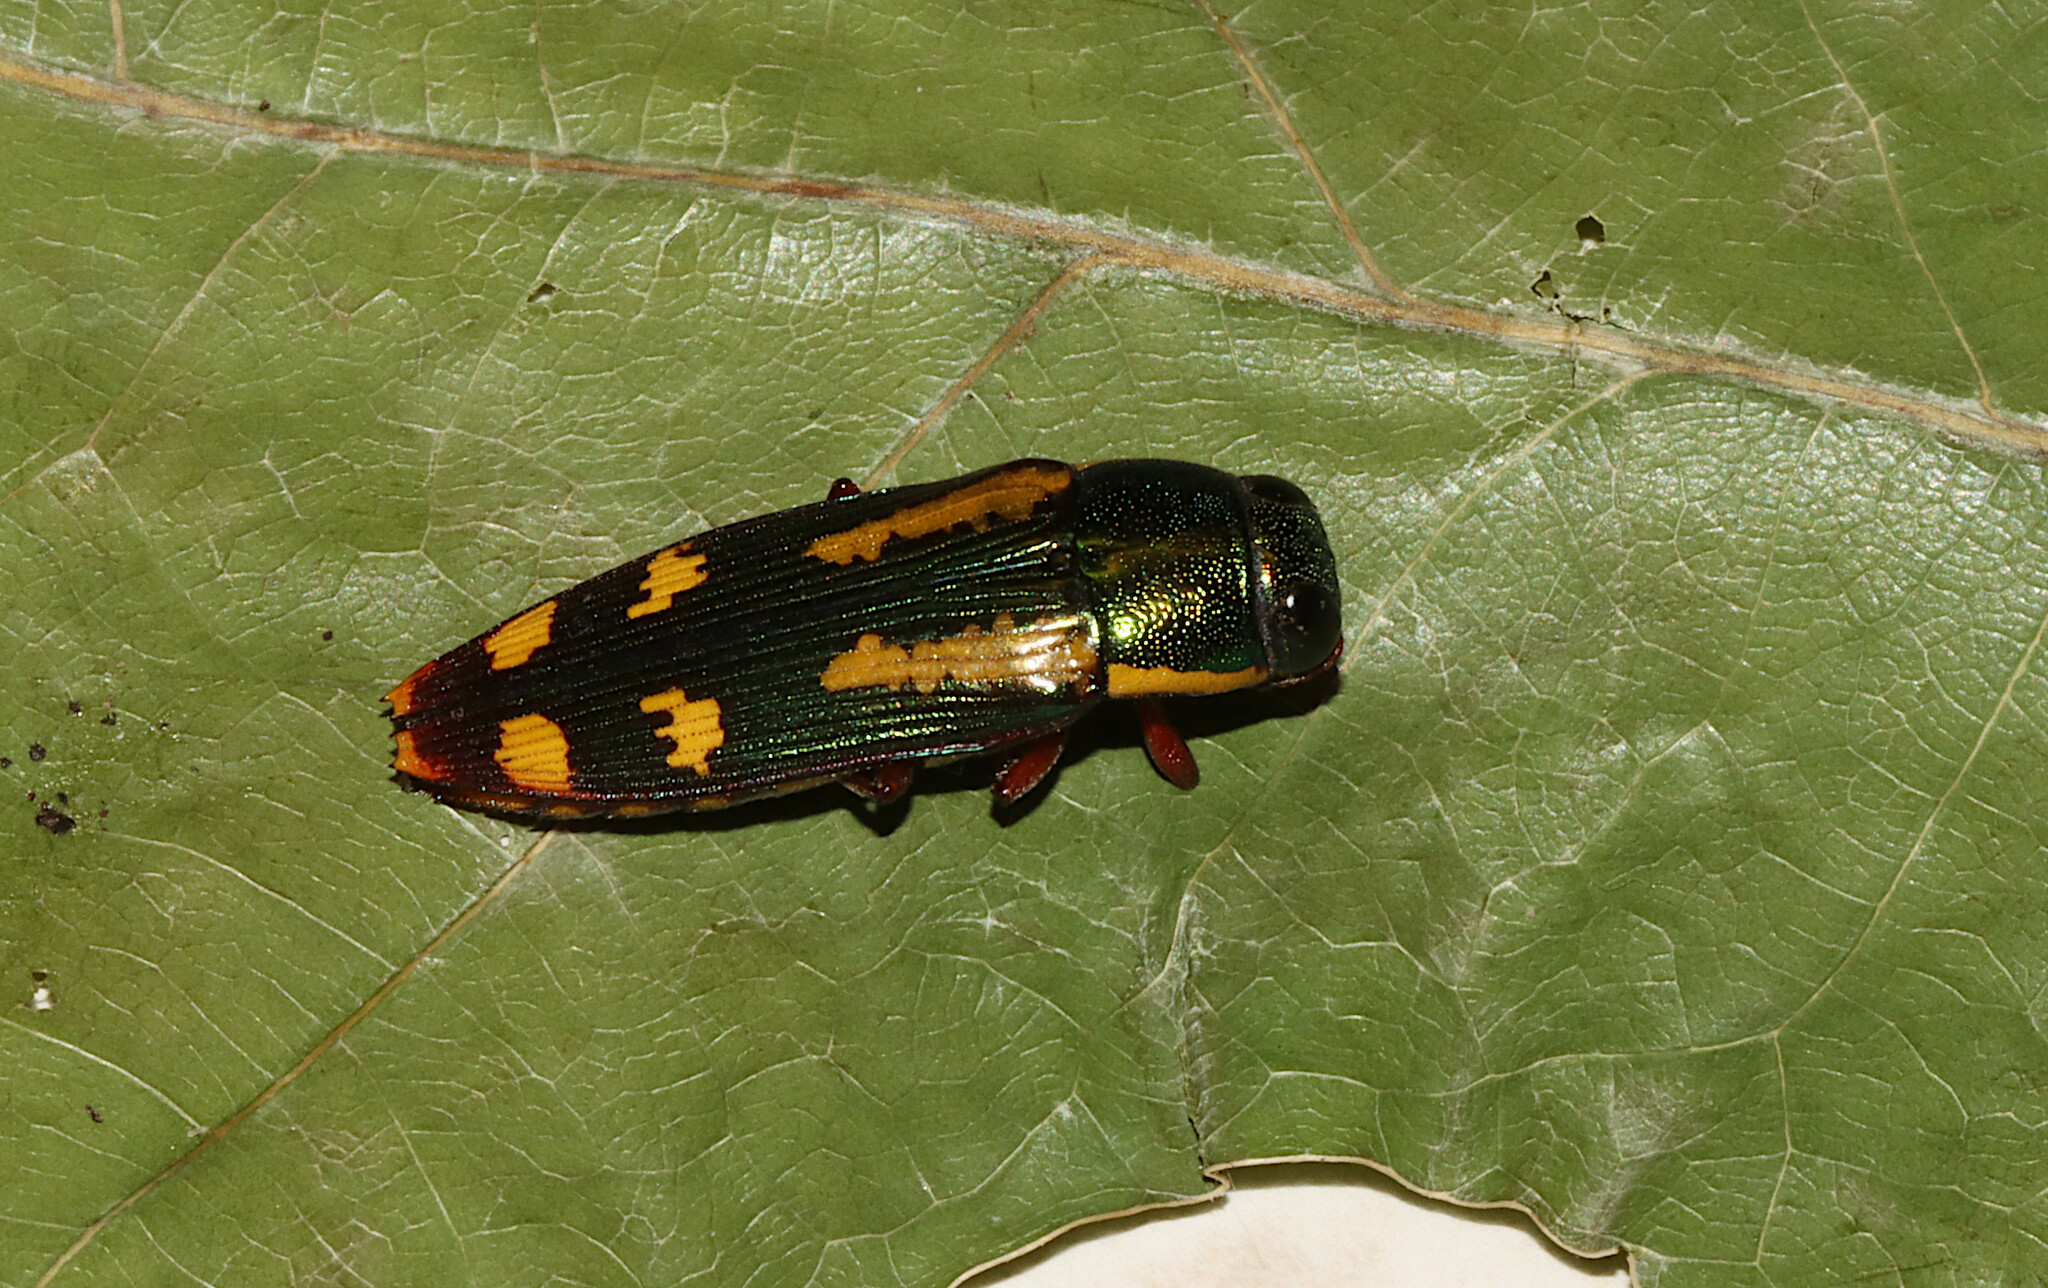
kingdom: Animalia
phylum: Arthropoda
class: Insecta
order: Coleoptera
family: Buprestidae
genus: Buprestis
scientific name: Buprestis rufipes
